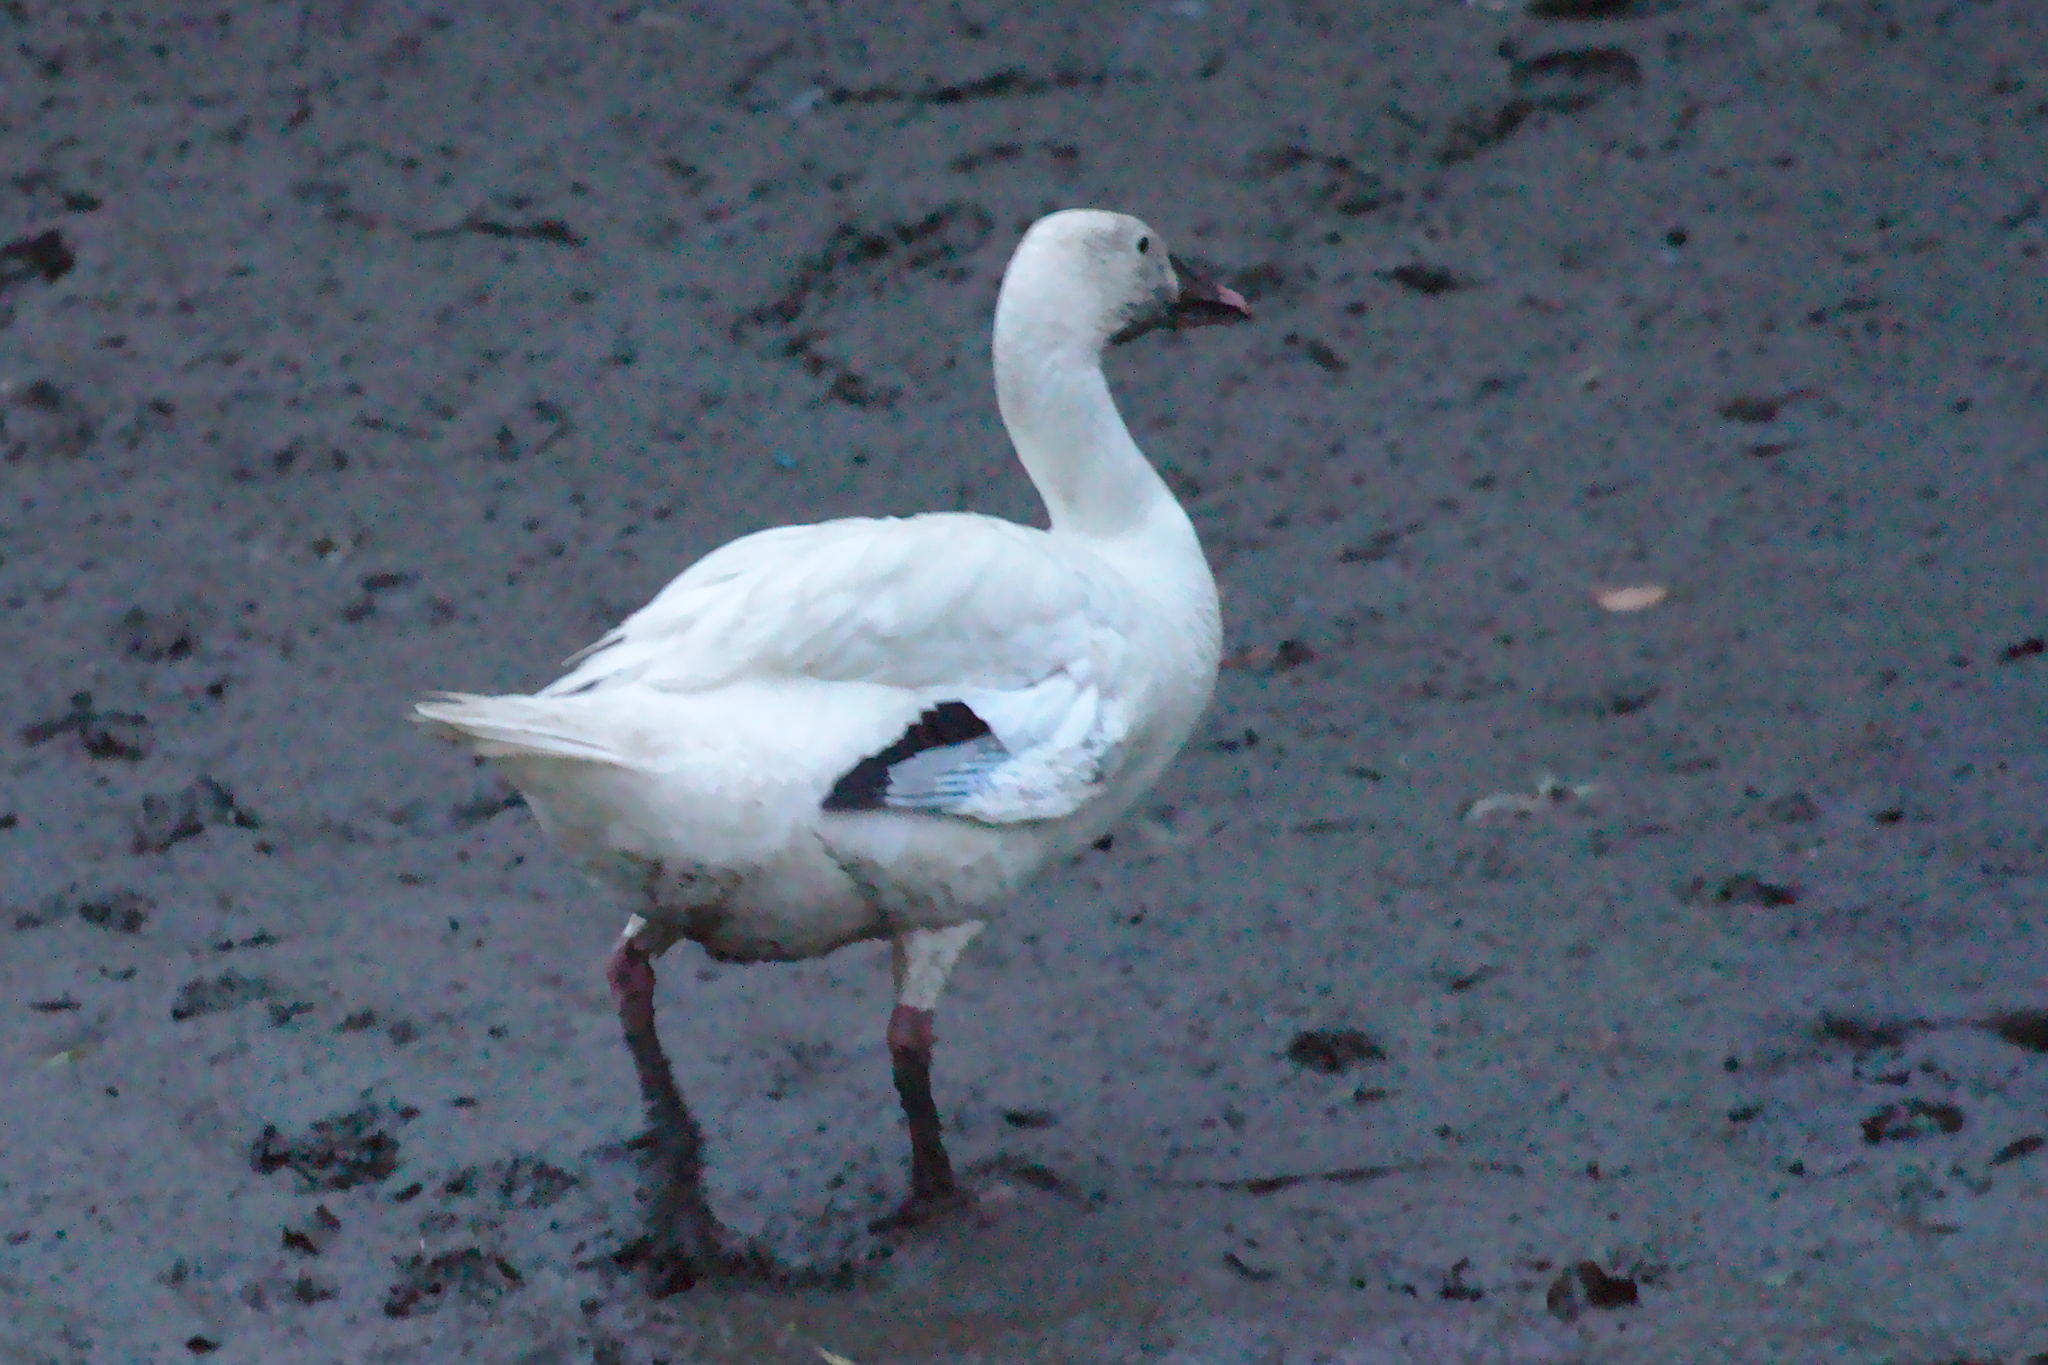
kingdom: Animalia
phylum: Chordata
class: Aves
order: Anseriformes
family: Anatidae
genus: Anser
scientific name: Anser caerulescens
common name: Snow goose
